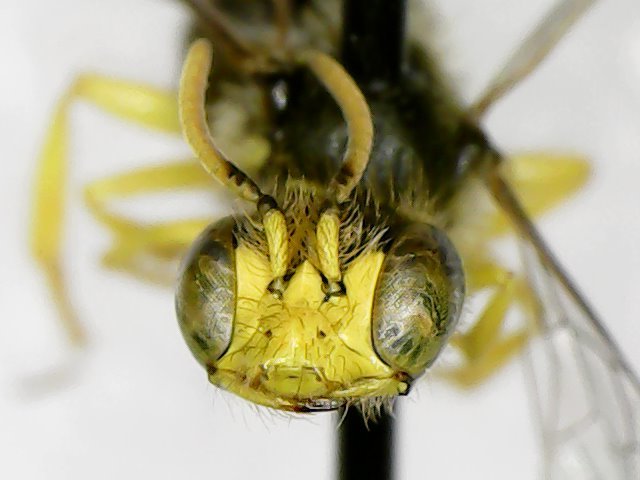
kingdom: Animalia
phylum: Arthropoda
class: Insecta
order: Hymenoptera
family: Andrenidae
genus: Calliopsis
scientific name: Calliopsis andreniformis
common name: Eastern calliopsis bee
